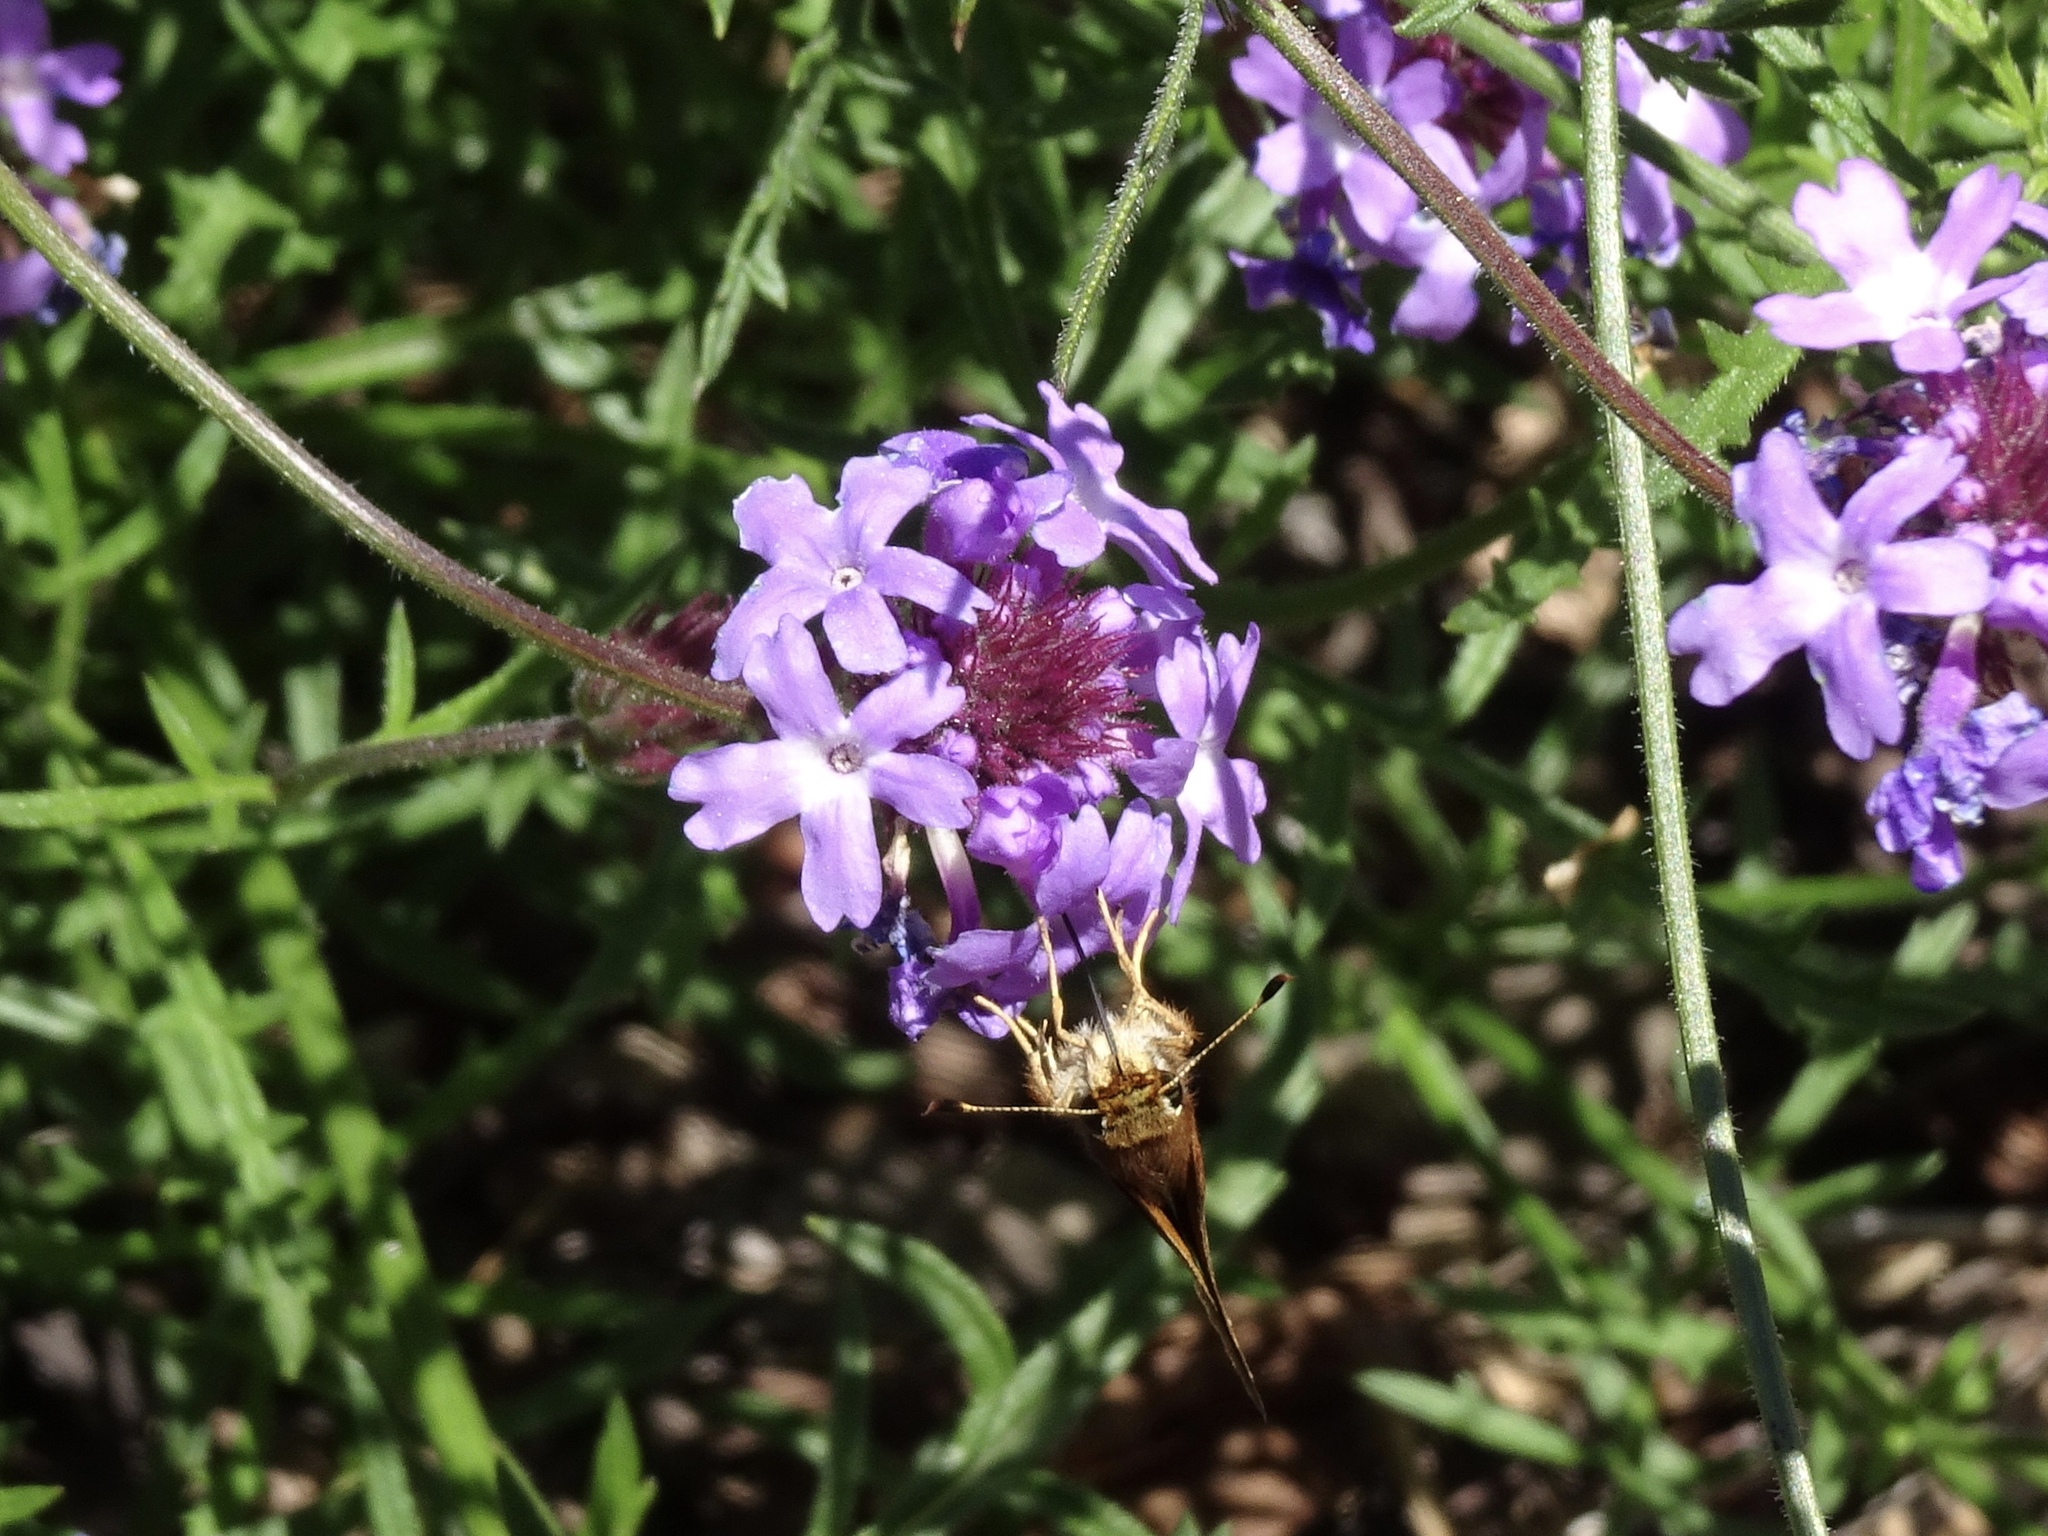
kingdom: Animalia
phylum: Arthropoda
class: Insecta
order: Lepidoptera
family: Hesperiidae
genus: Lon
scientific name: Lon melane
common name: Umber skipper
